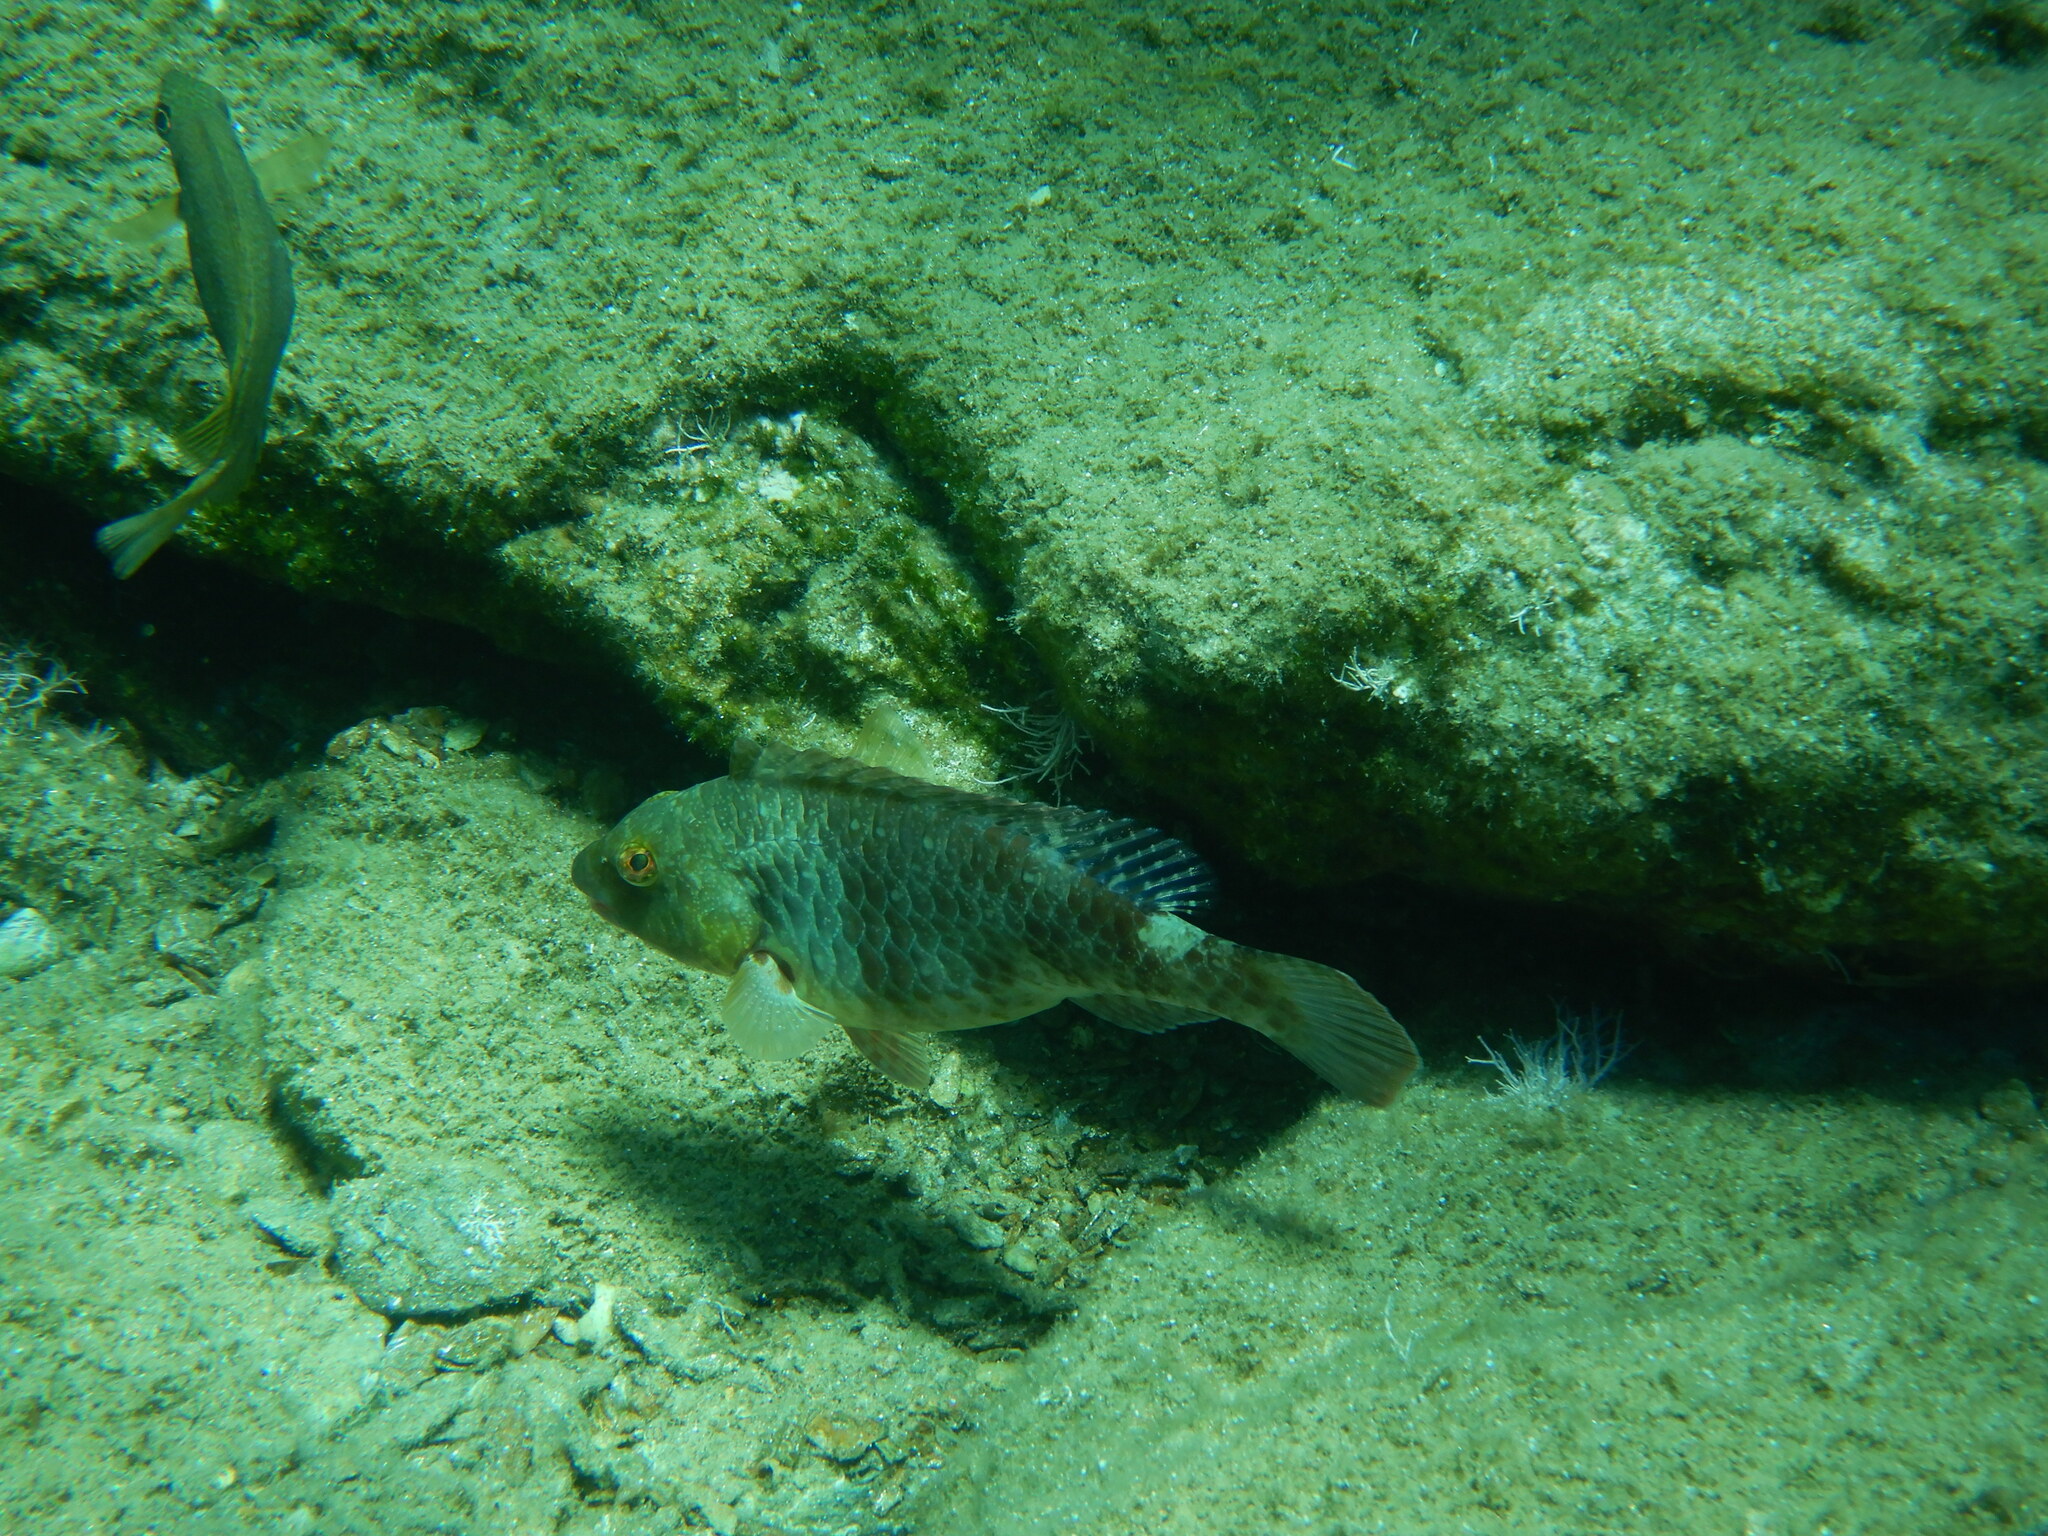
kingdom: Animalia
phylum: Chordata
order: Perciformes
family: Scaridae
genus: Sparisoma
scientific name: Sparisoma cretense
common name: Parrotfish
